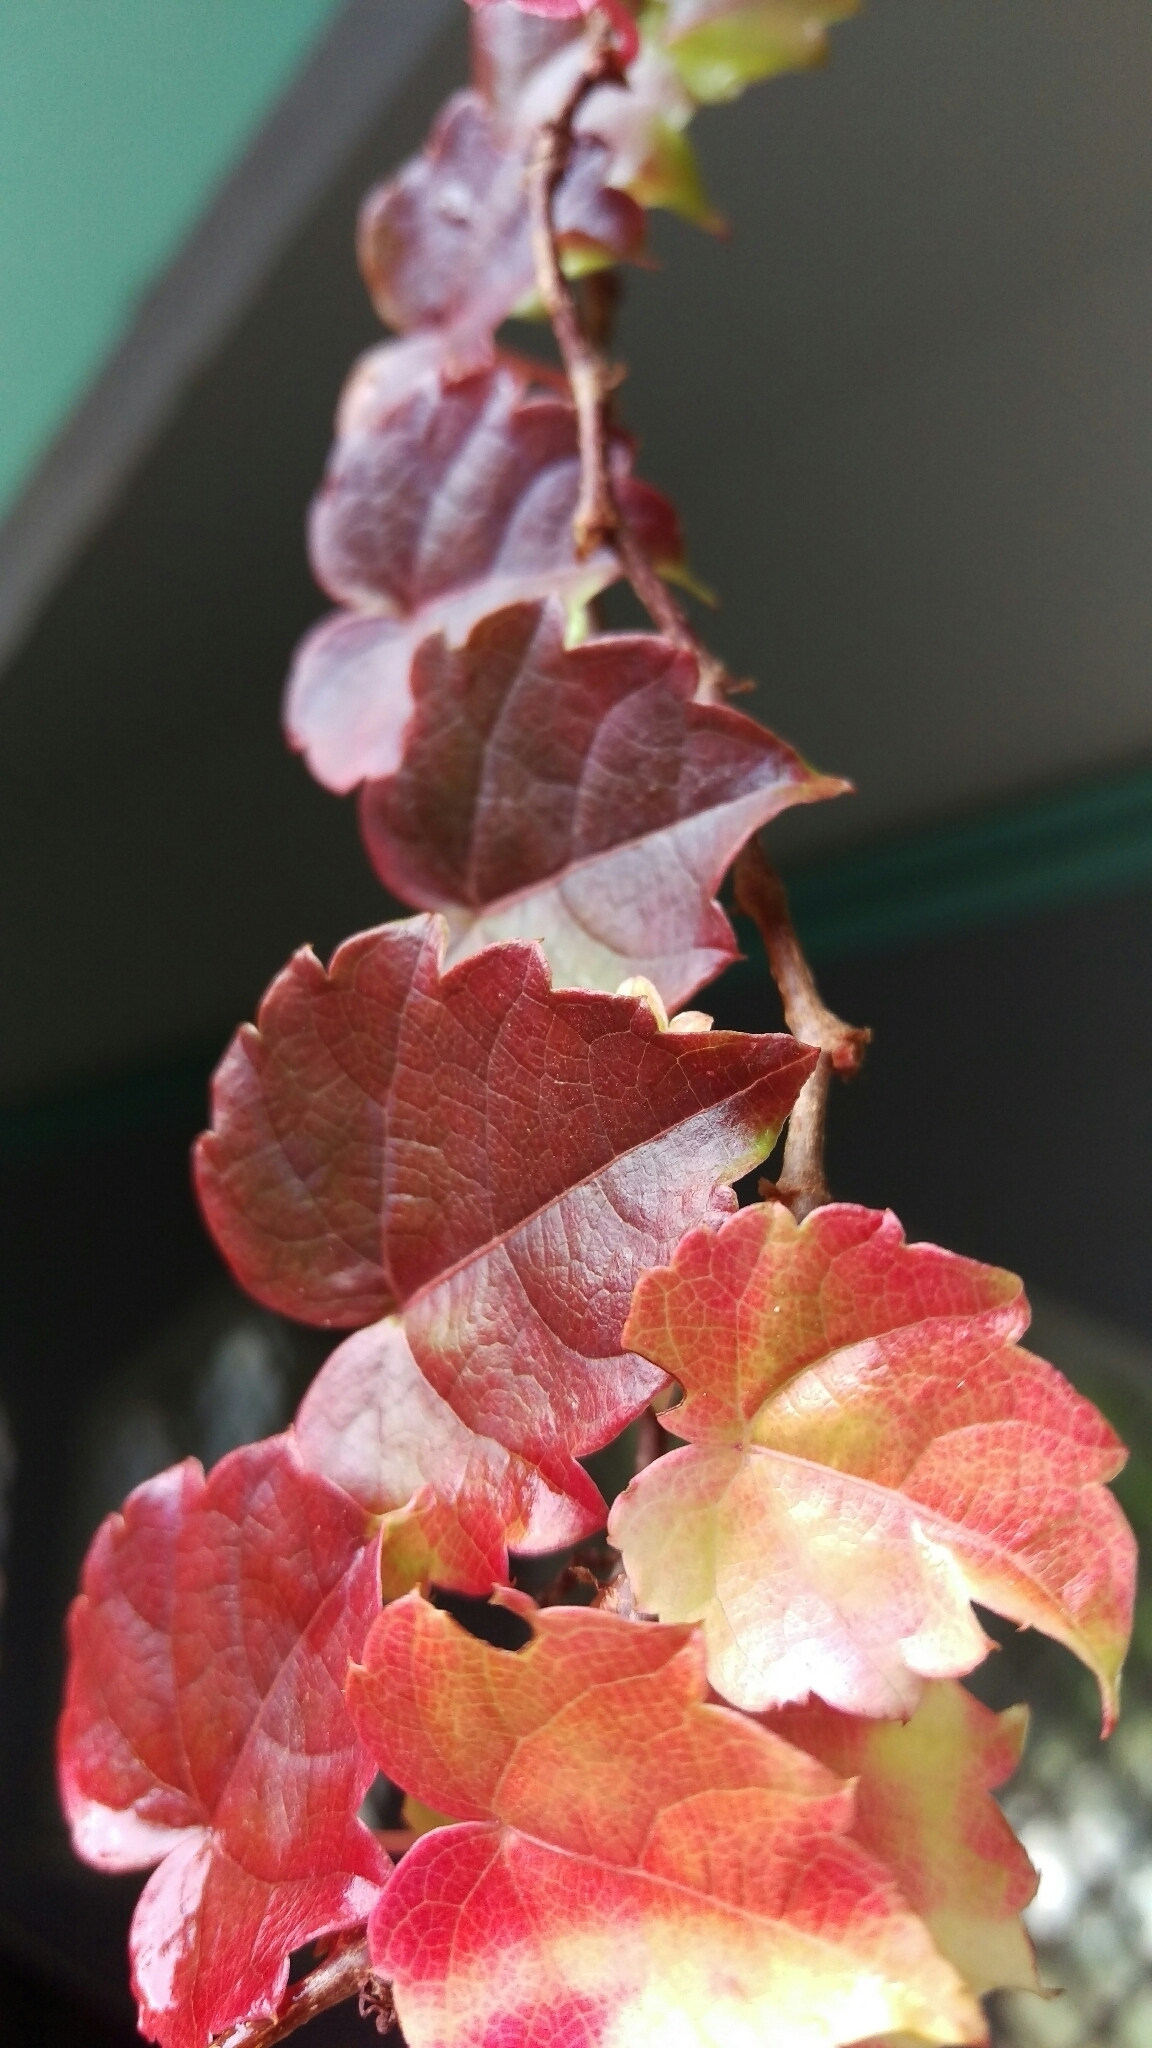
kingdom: Plantae
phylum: Tracheophyta
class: Magnoliopsida
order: Vitales
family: Vitaceae
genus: Parthenocissus
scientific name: Parthenocissus tricuspidata
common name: Boston ivy
